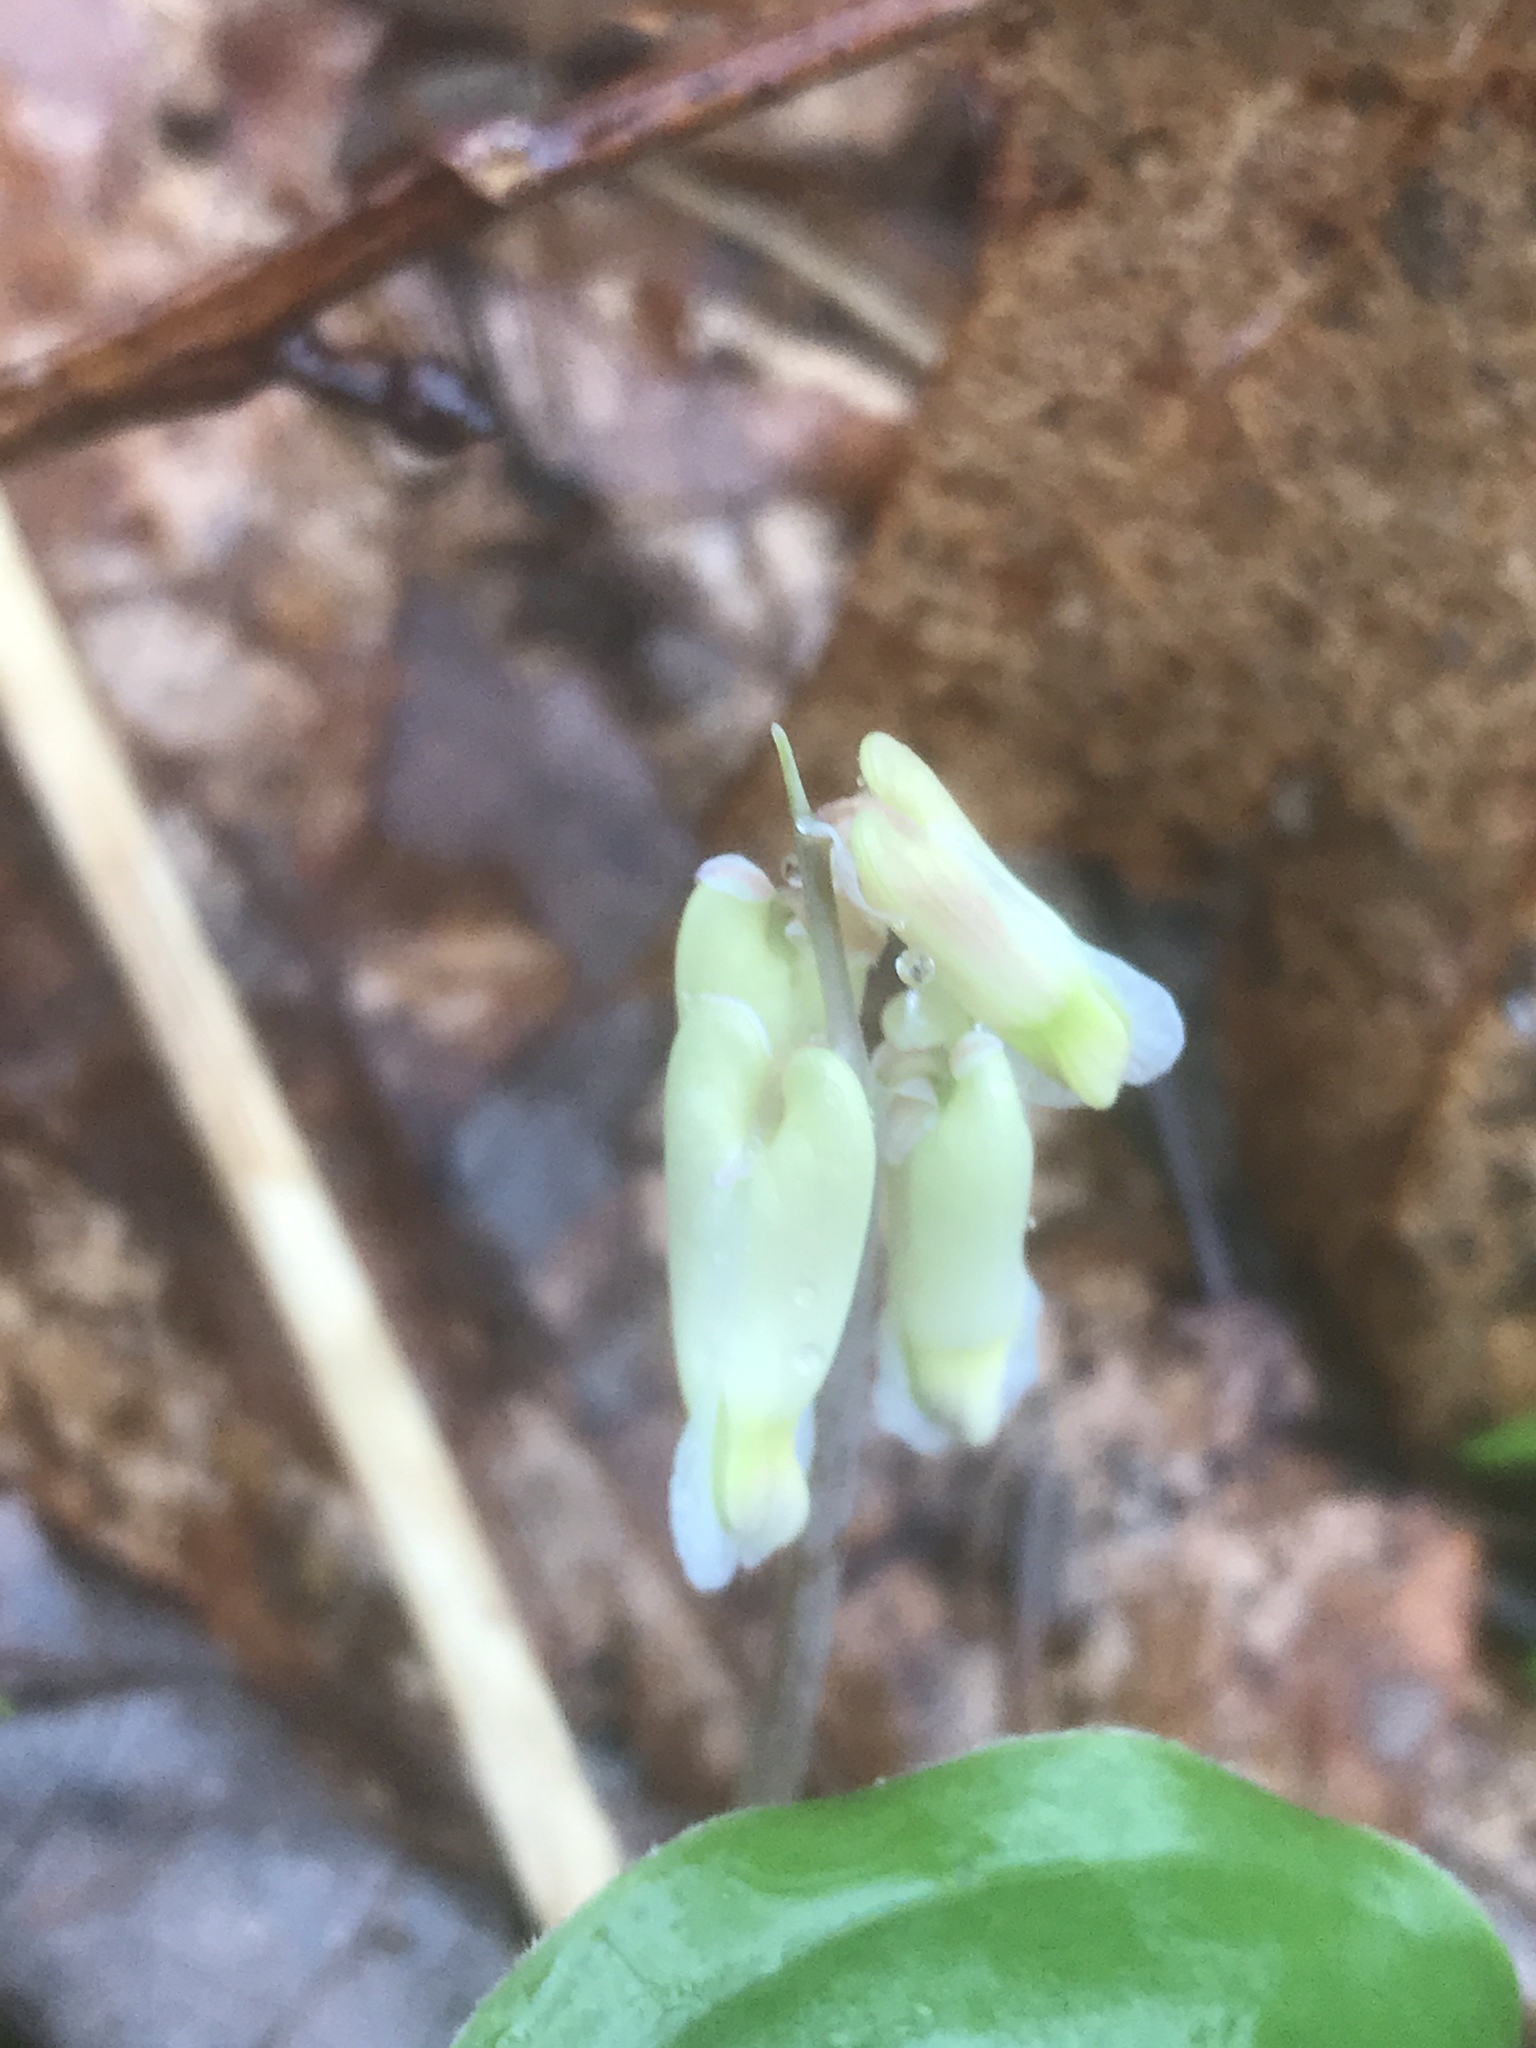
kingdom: Plantae
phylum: Tracheophyta
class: Magnoliopsida
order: Ranunculales
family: Papaveraceae
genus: Dicentra
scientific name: Dicentra canadensis
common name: Squirrel-corn
